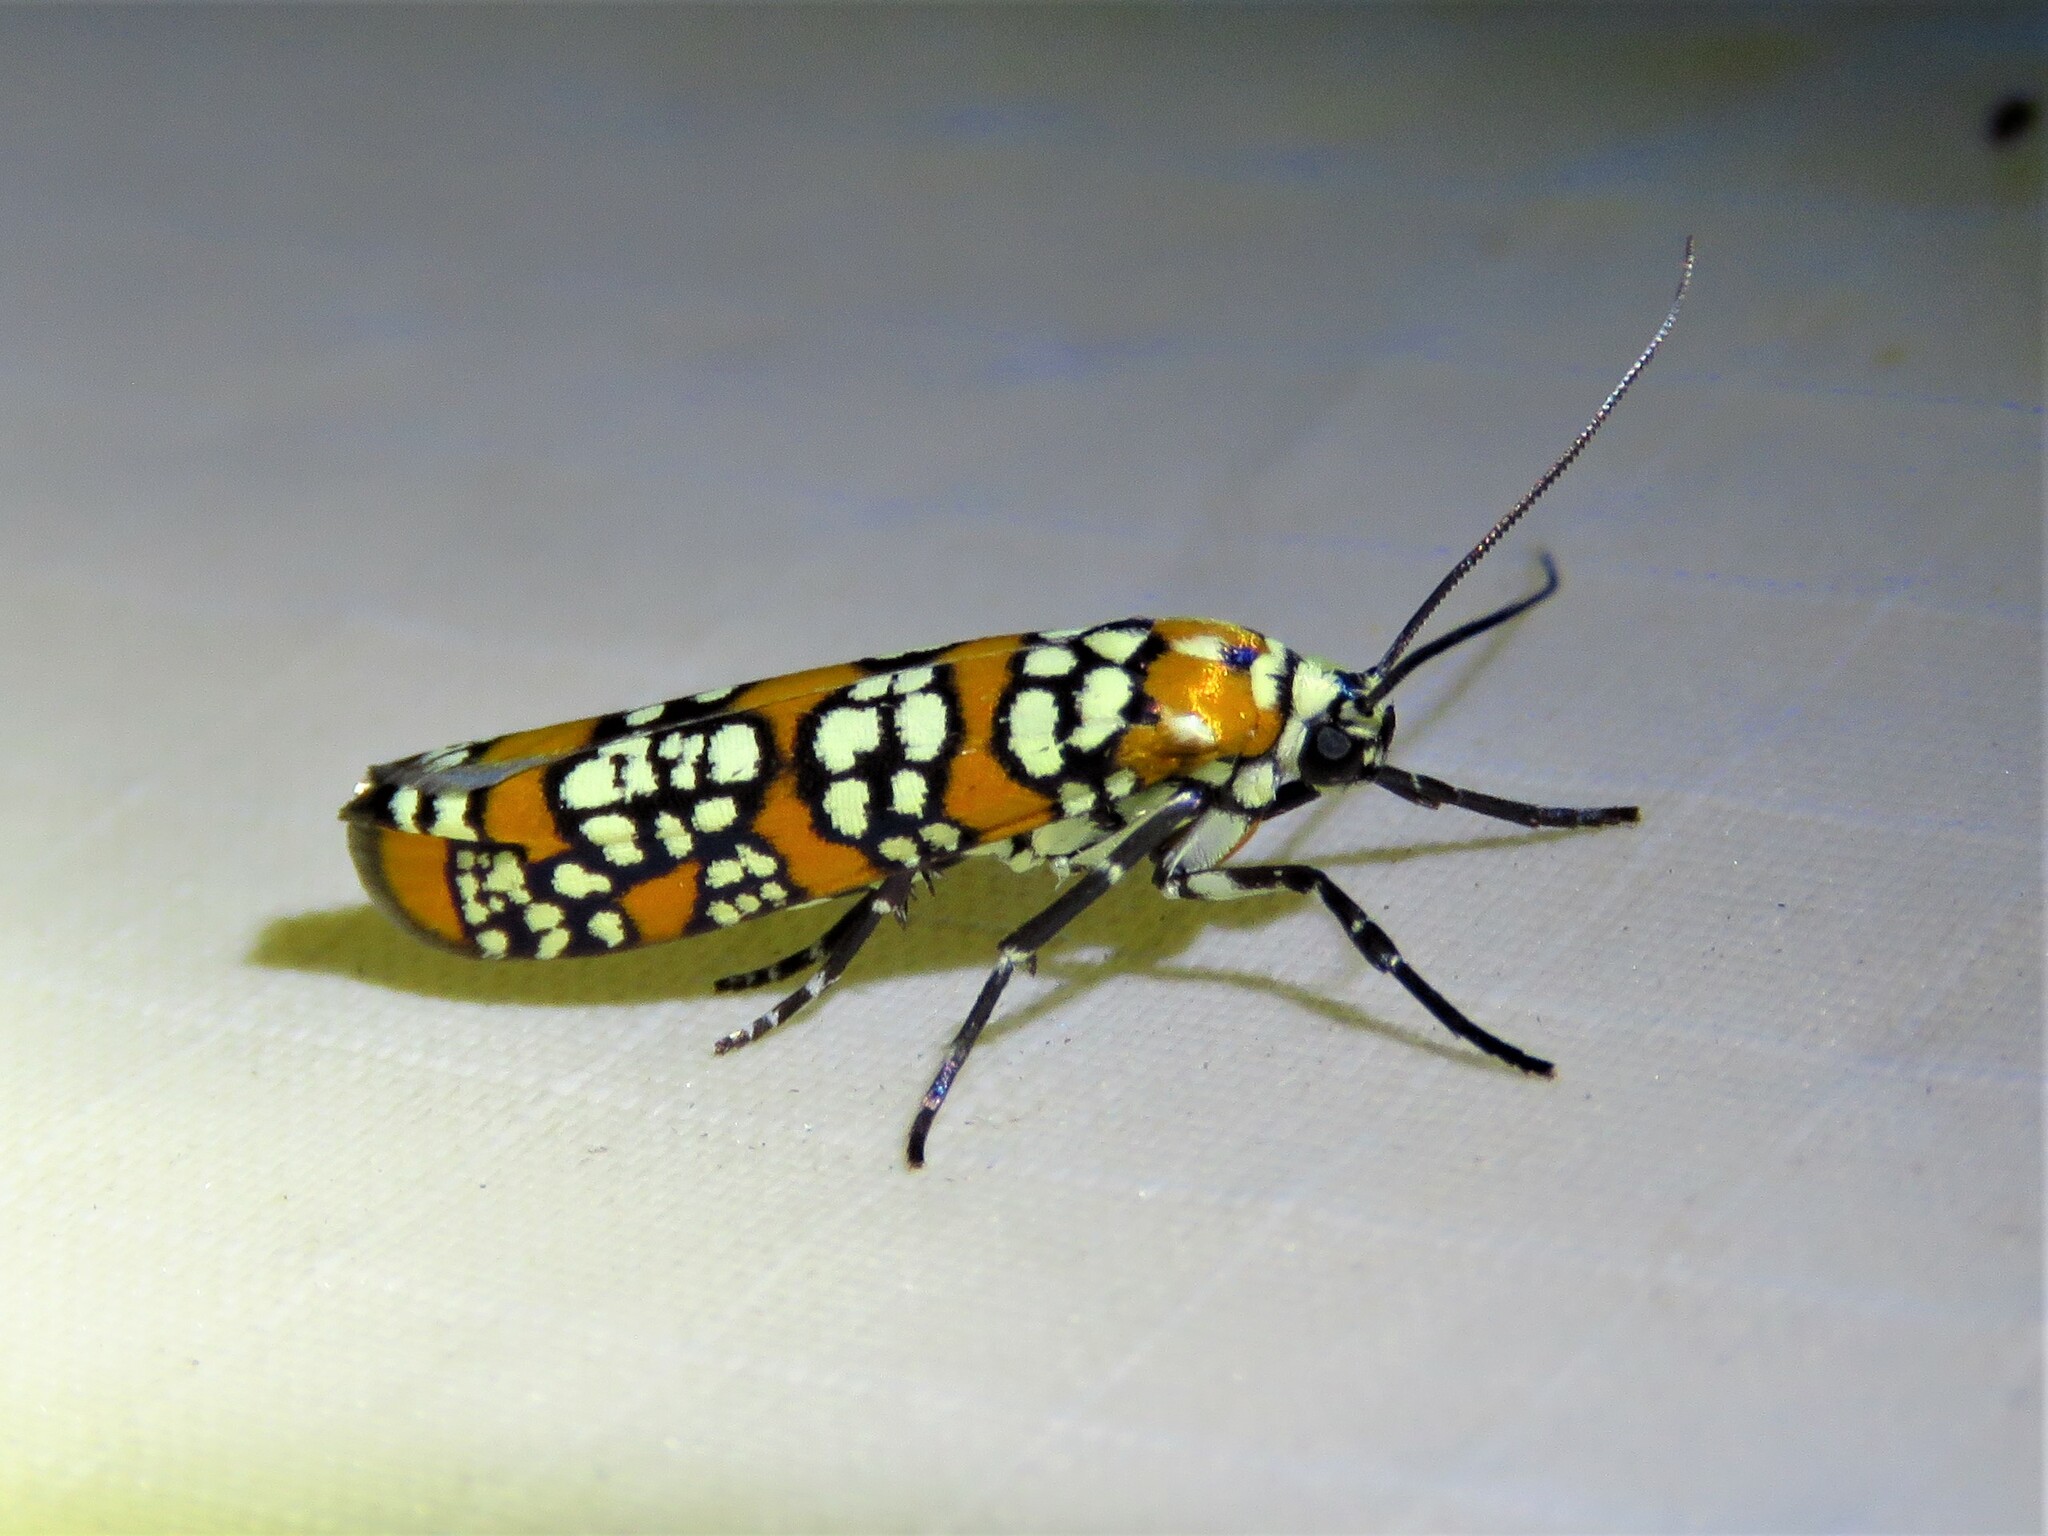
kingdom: Animalia
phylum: Arthropoda
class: Insecta
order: Lepidoptera
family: Attevidae
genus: Atteva
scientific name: Atteva punctella
